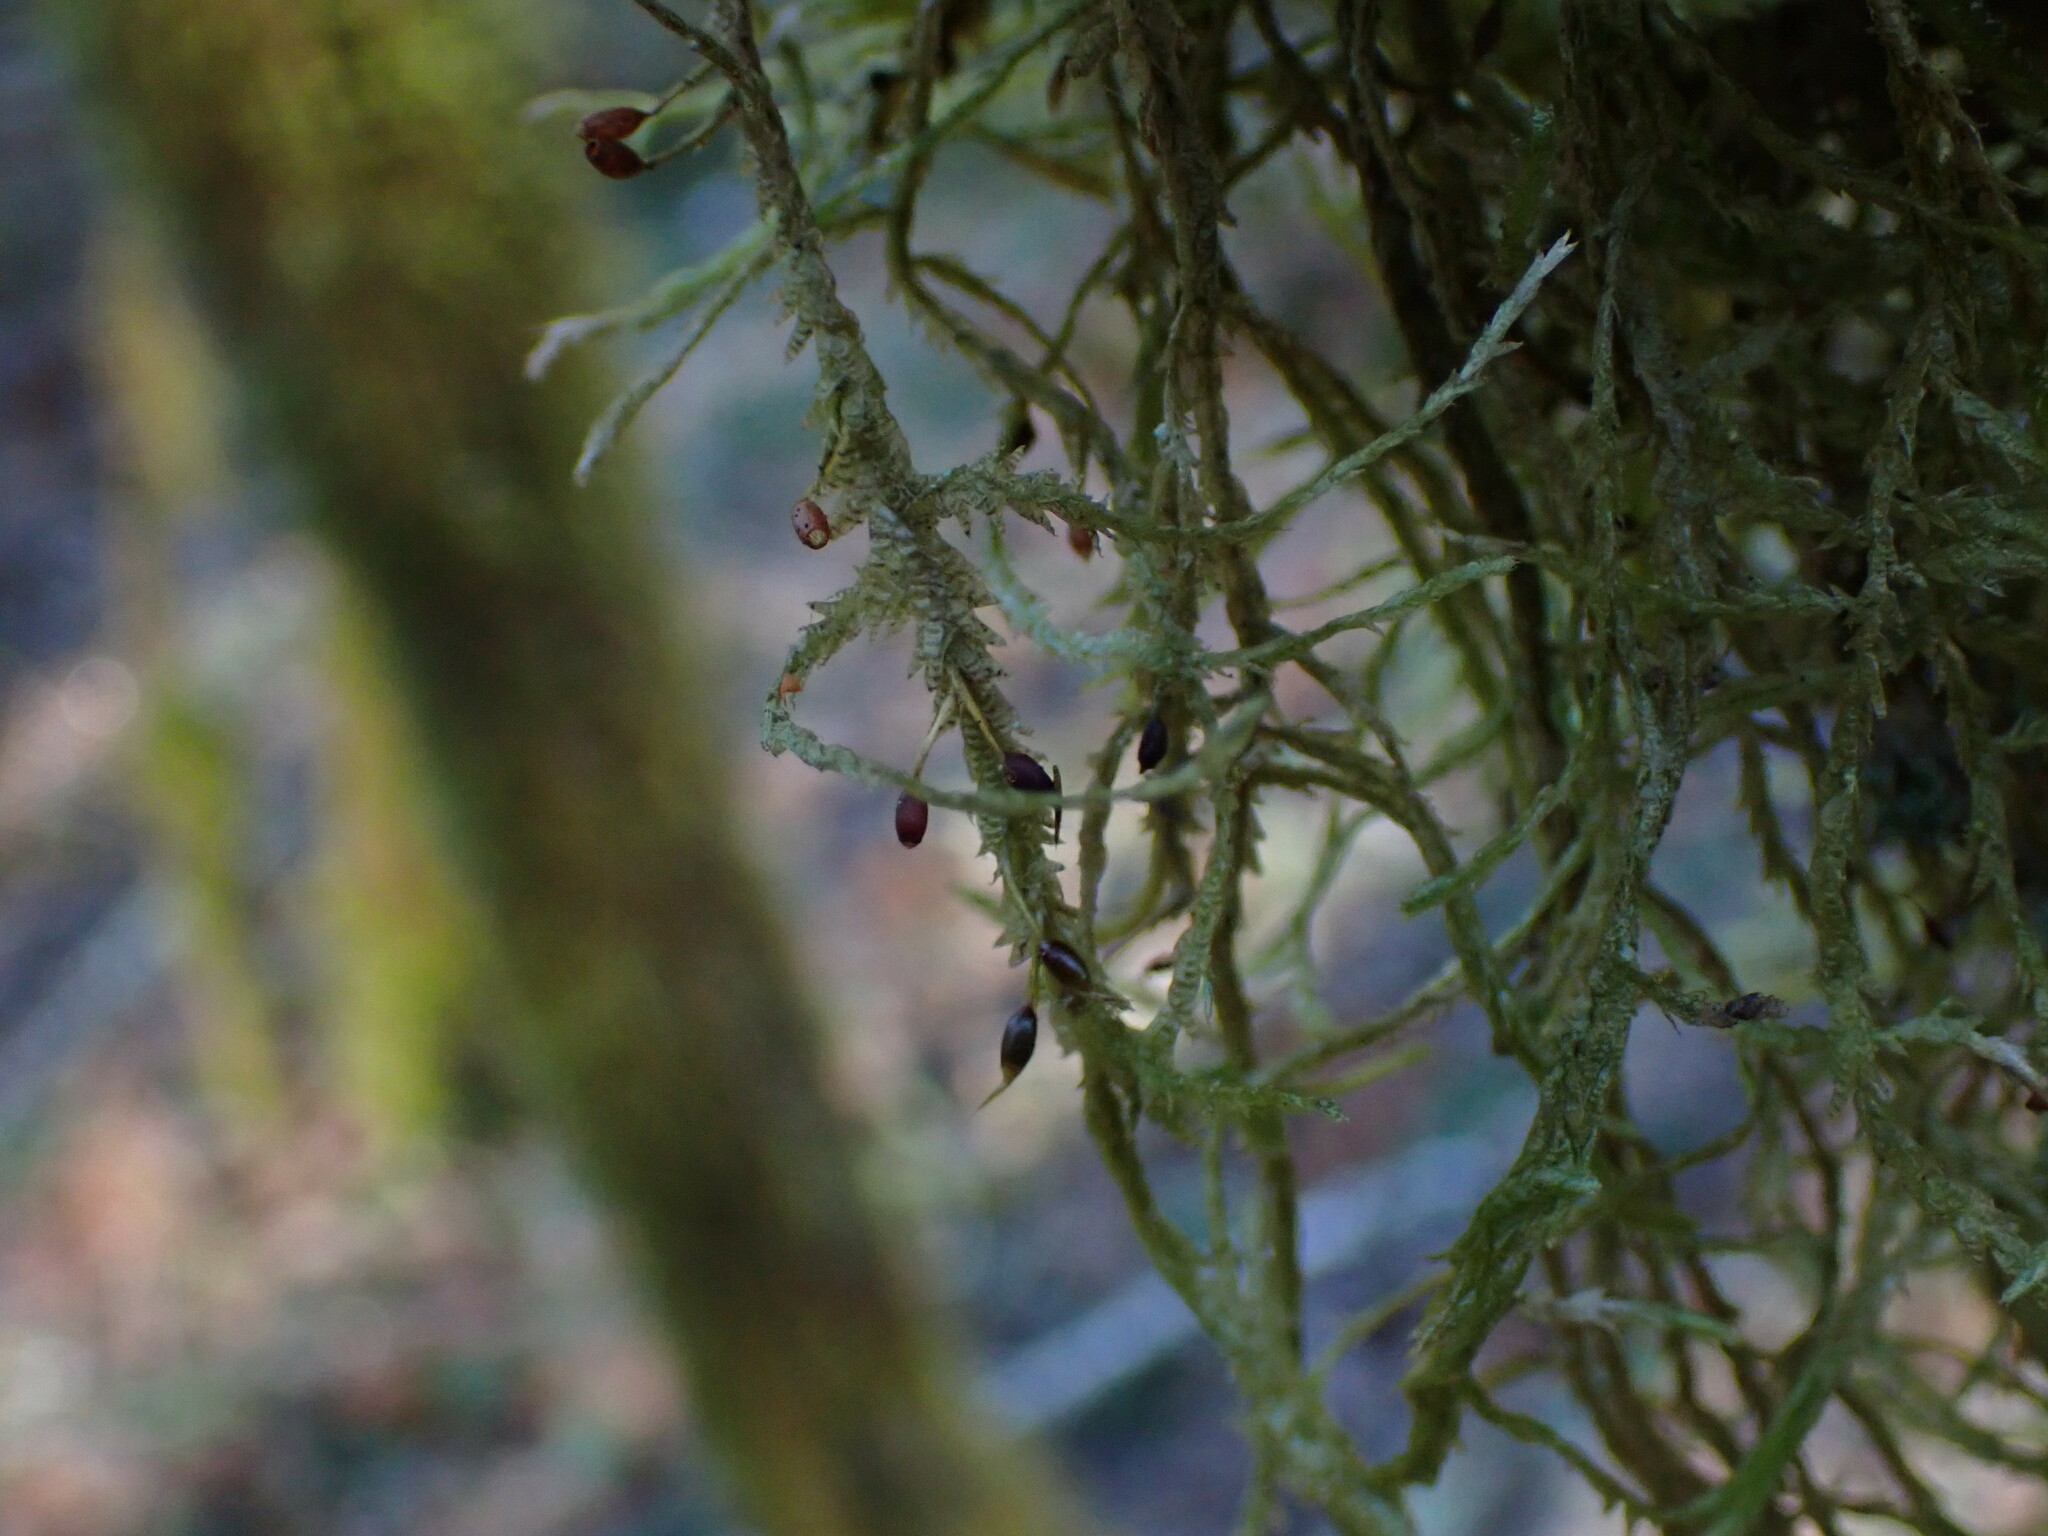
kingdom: Plantae
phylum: Bryophyta
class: Bryopsida
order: Hypnales
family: Neckeraceae
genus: Neckera
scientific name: Neckera douglasii
